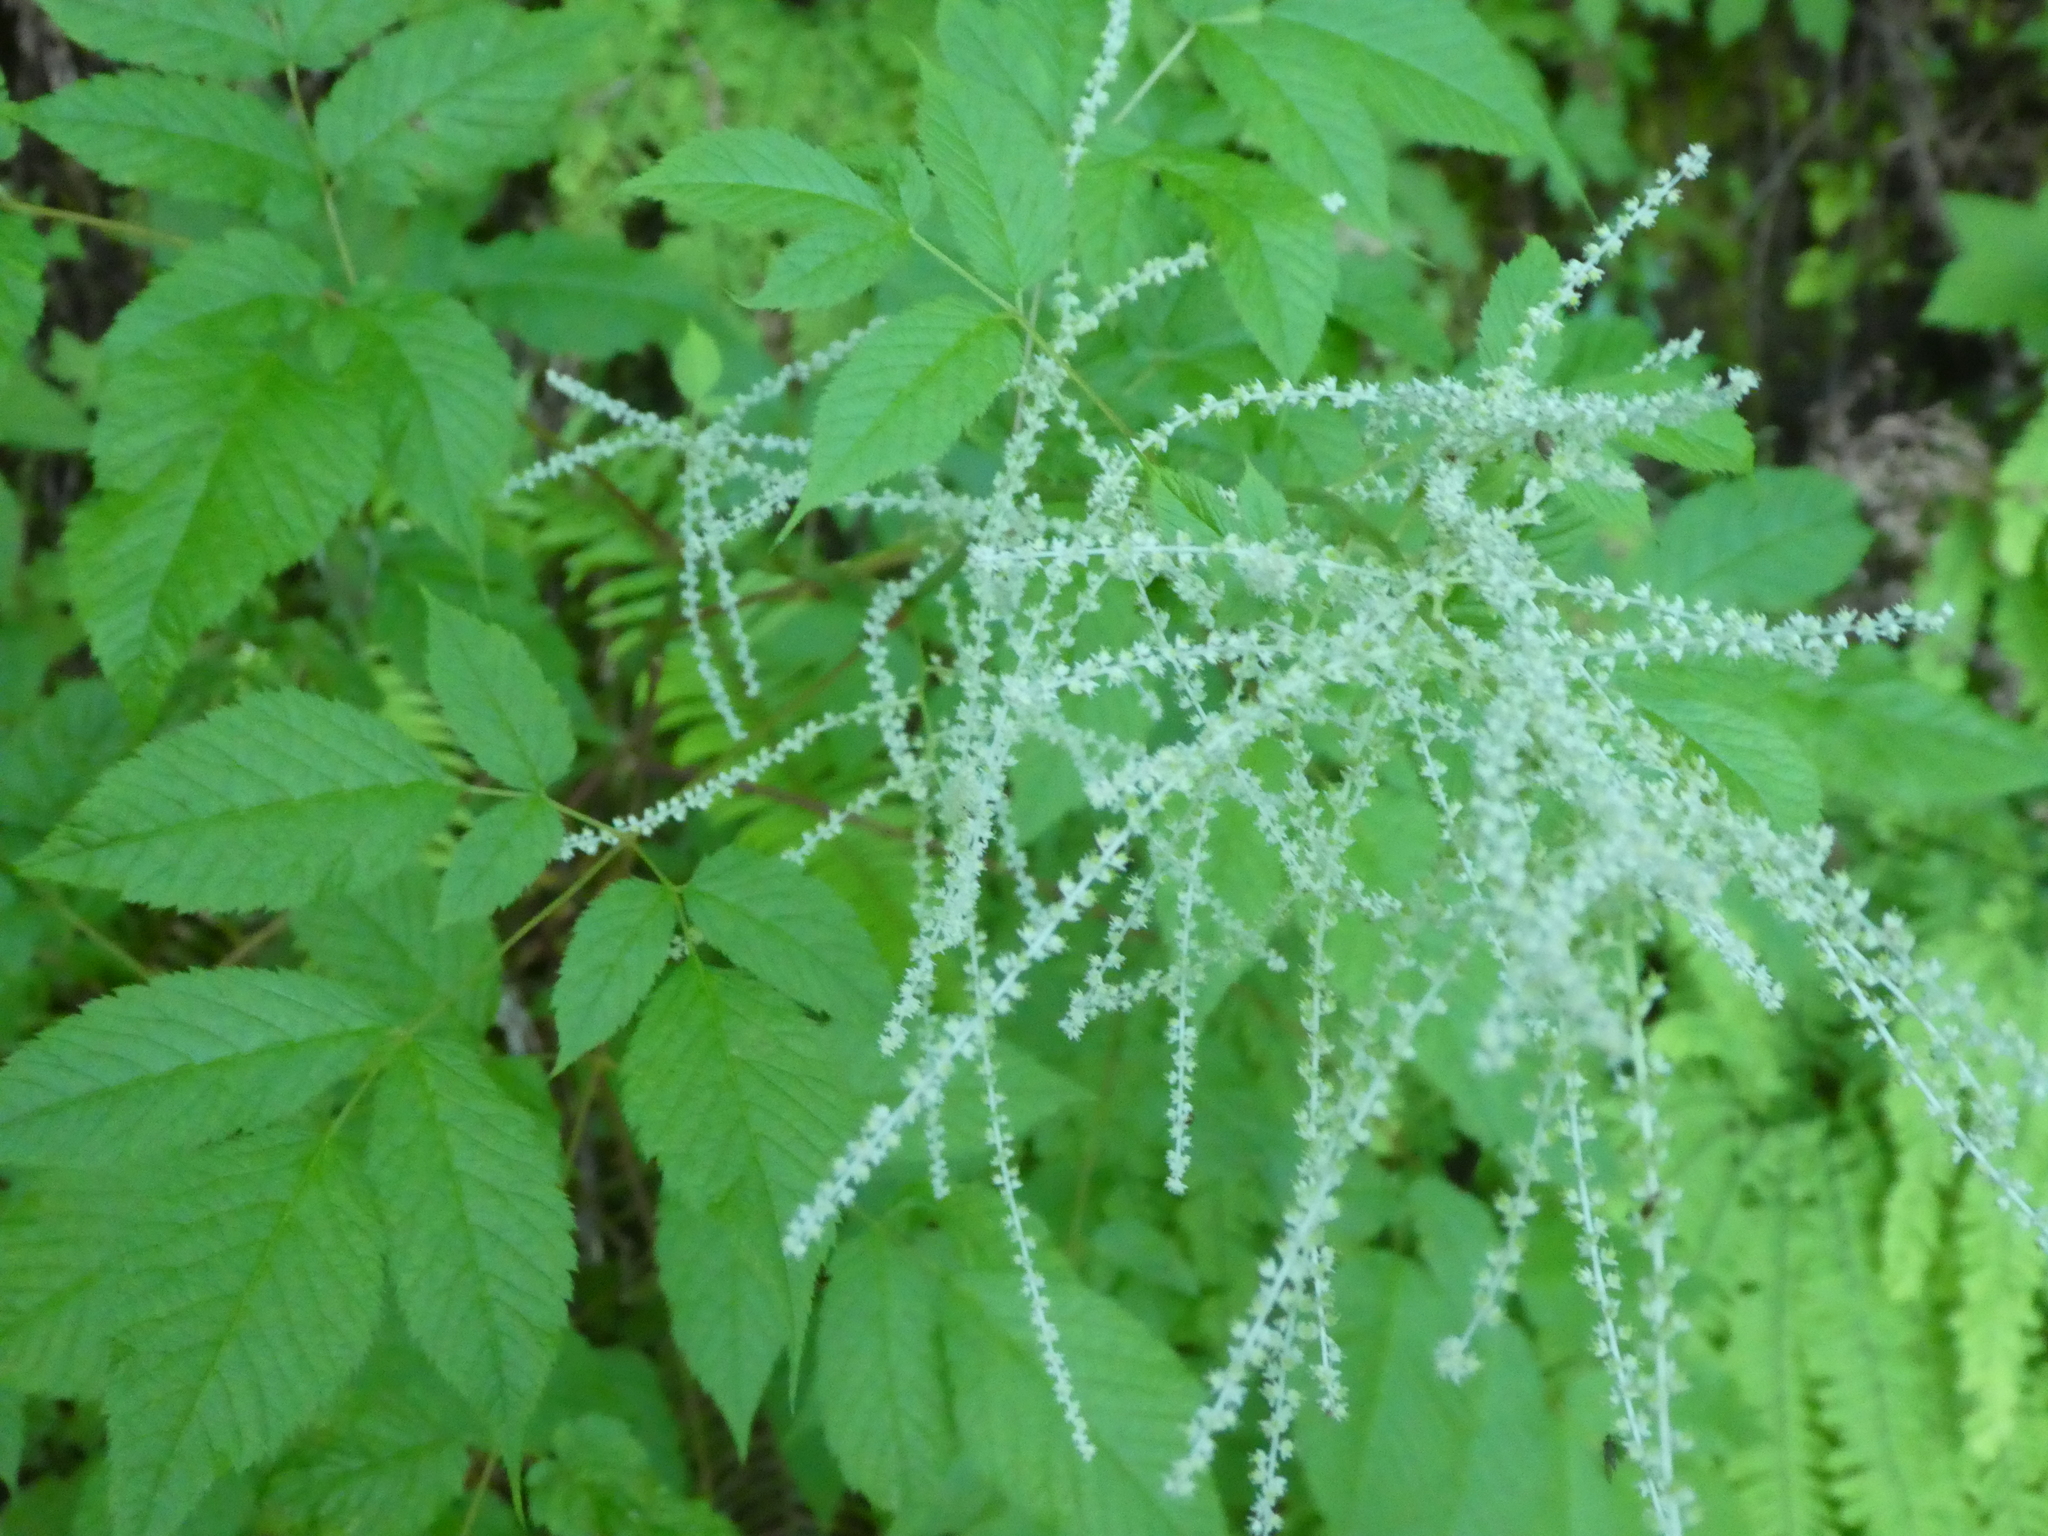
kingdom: Plantae
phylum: Tracheophyta
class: Magnoliopsida
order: Rosales
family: Rosaceae
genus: Aruncus
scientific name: Aruncus dioicus
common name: Buck's-beard
